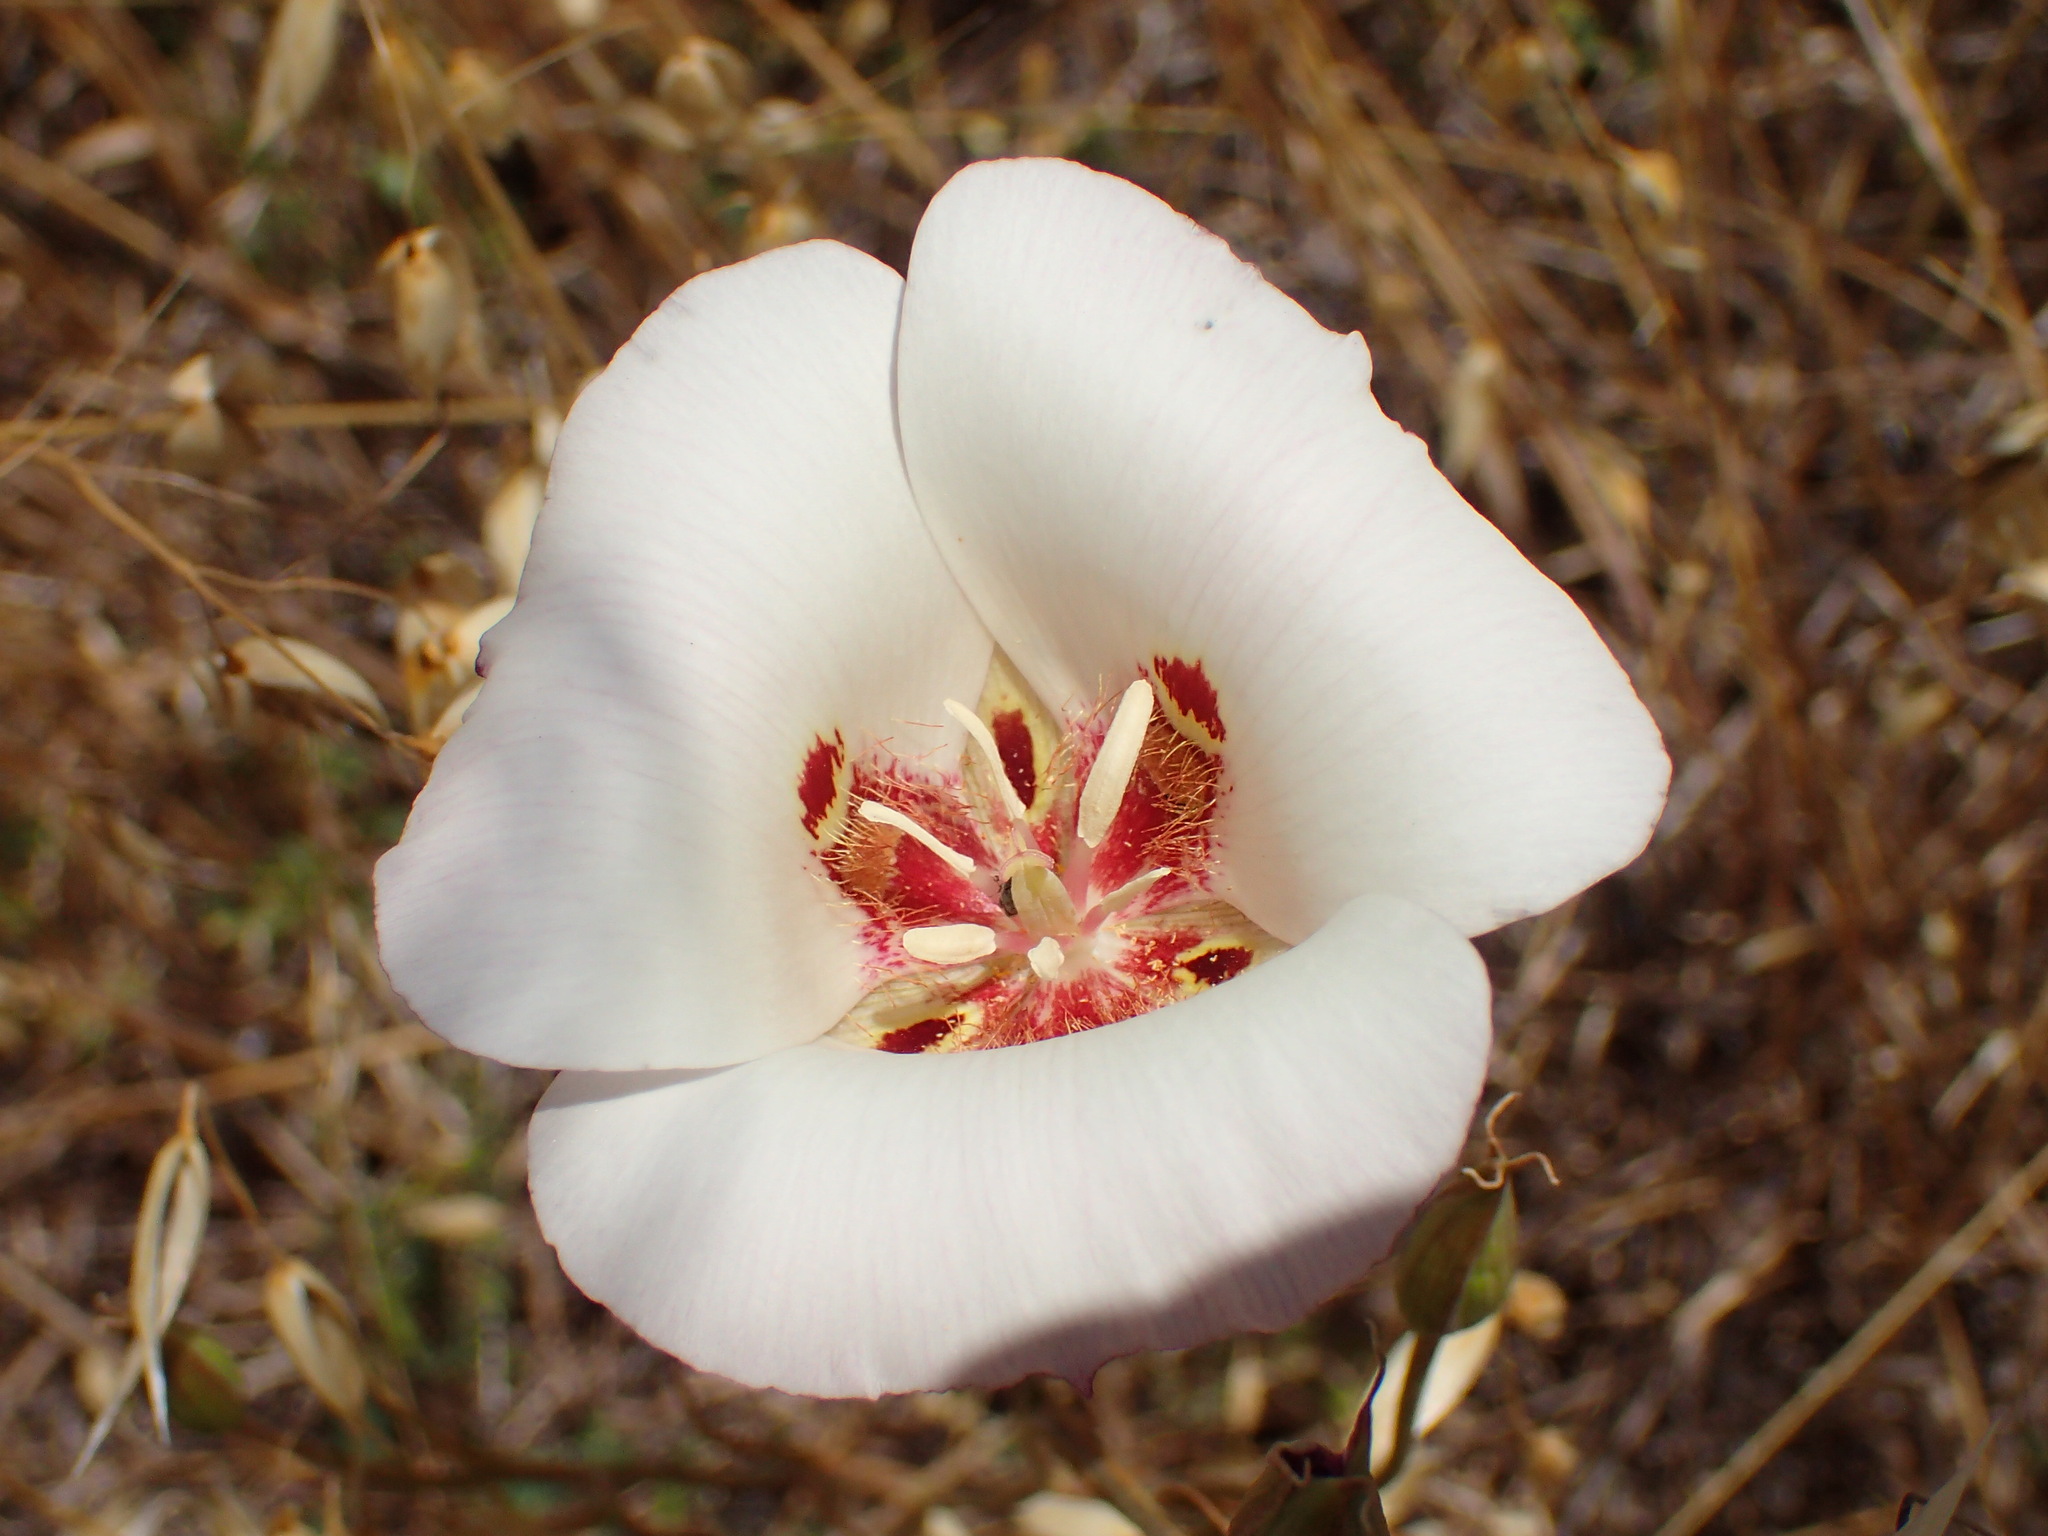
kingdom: Plantae
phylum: Tracheophyta
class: Liliopsida
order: Liliales
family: Liliaceae
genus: Calochortus
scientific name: Calochortus venustus
